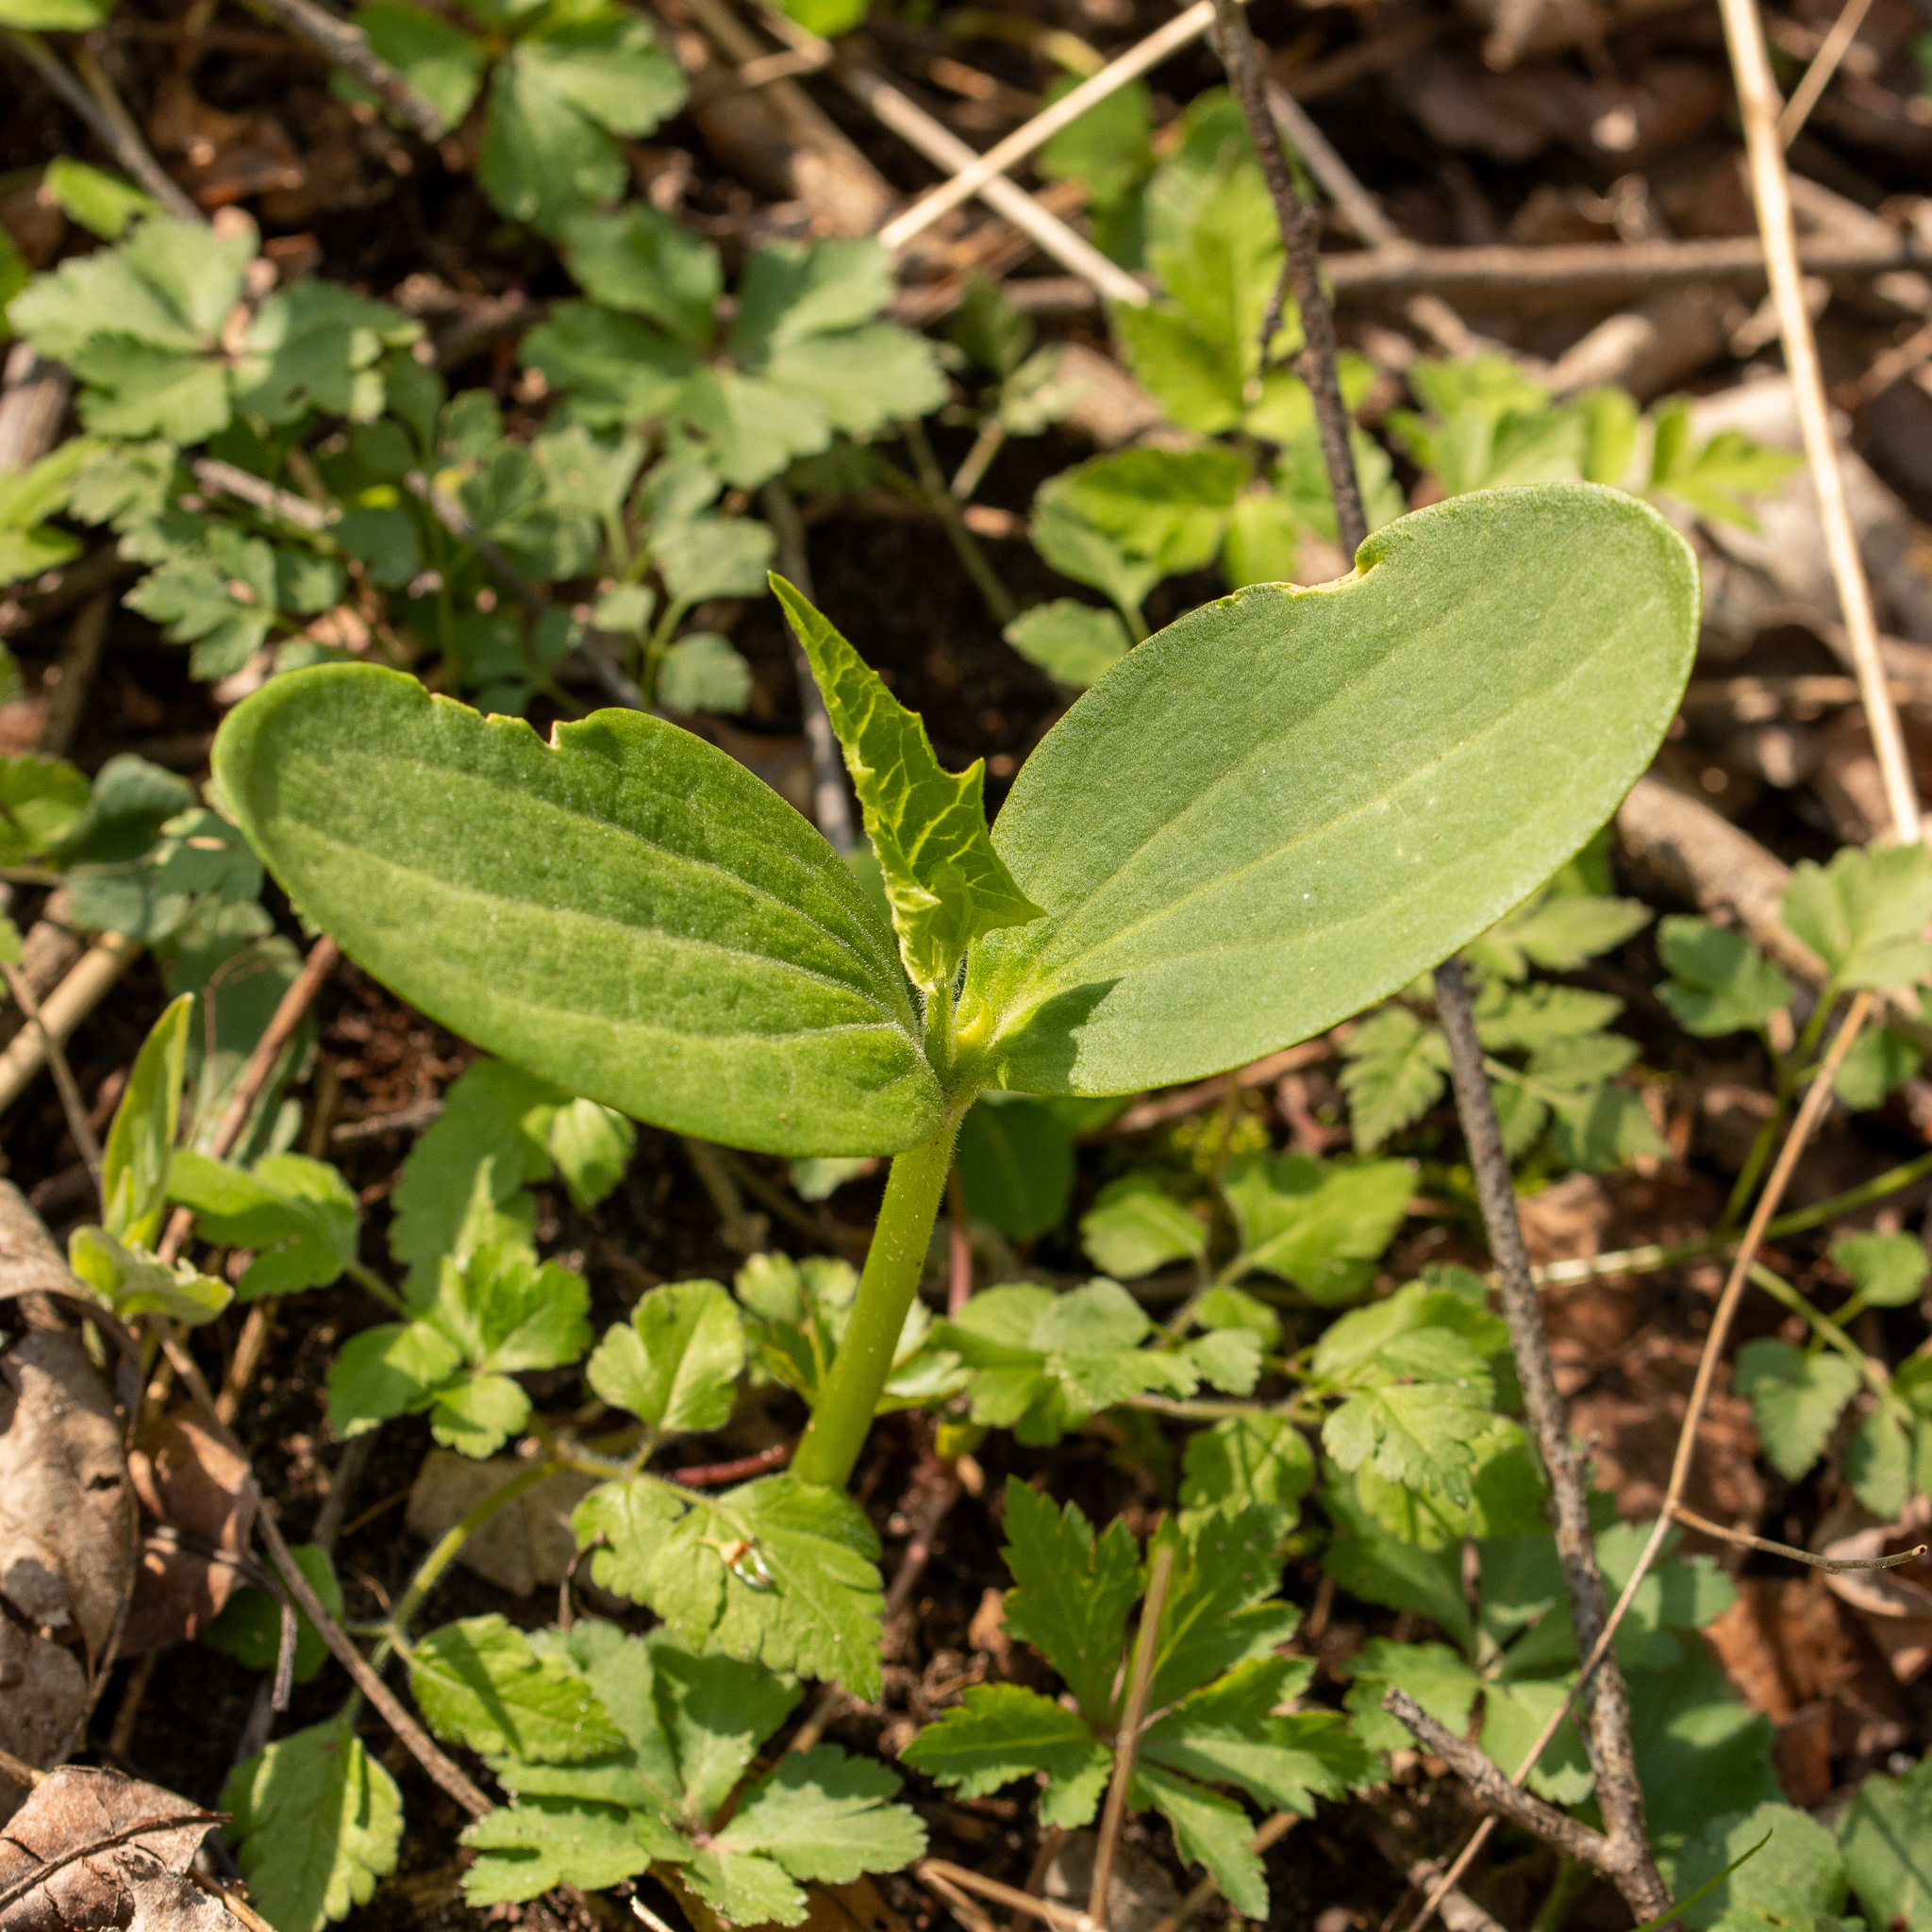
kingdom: Plantae
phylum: Tracheophyta
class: Magnoliopsida
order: Cucurbitales
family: Cucurbitaceae
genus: Echinocystis
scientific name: Echinocystis lobata
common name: Wild cucumber
